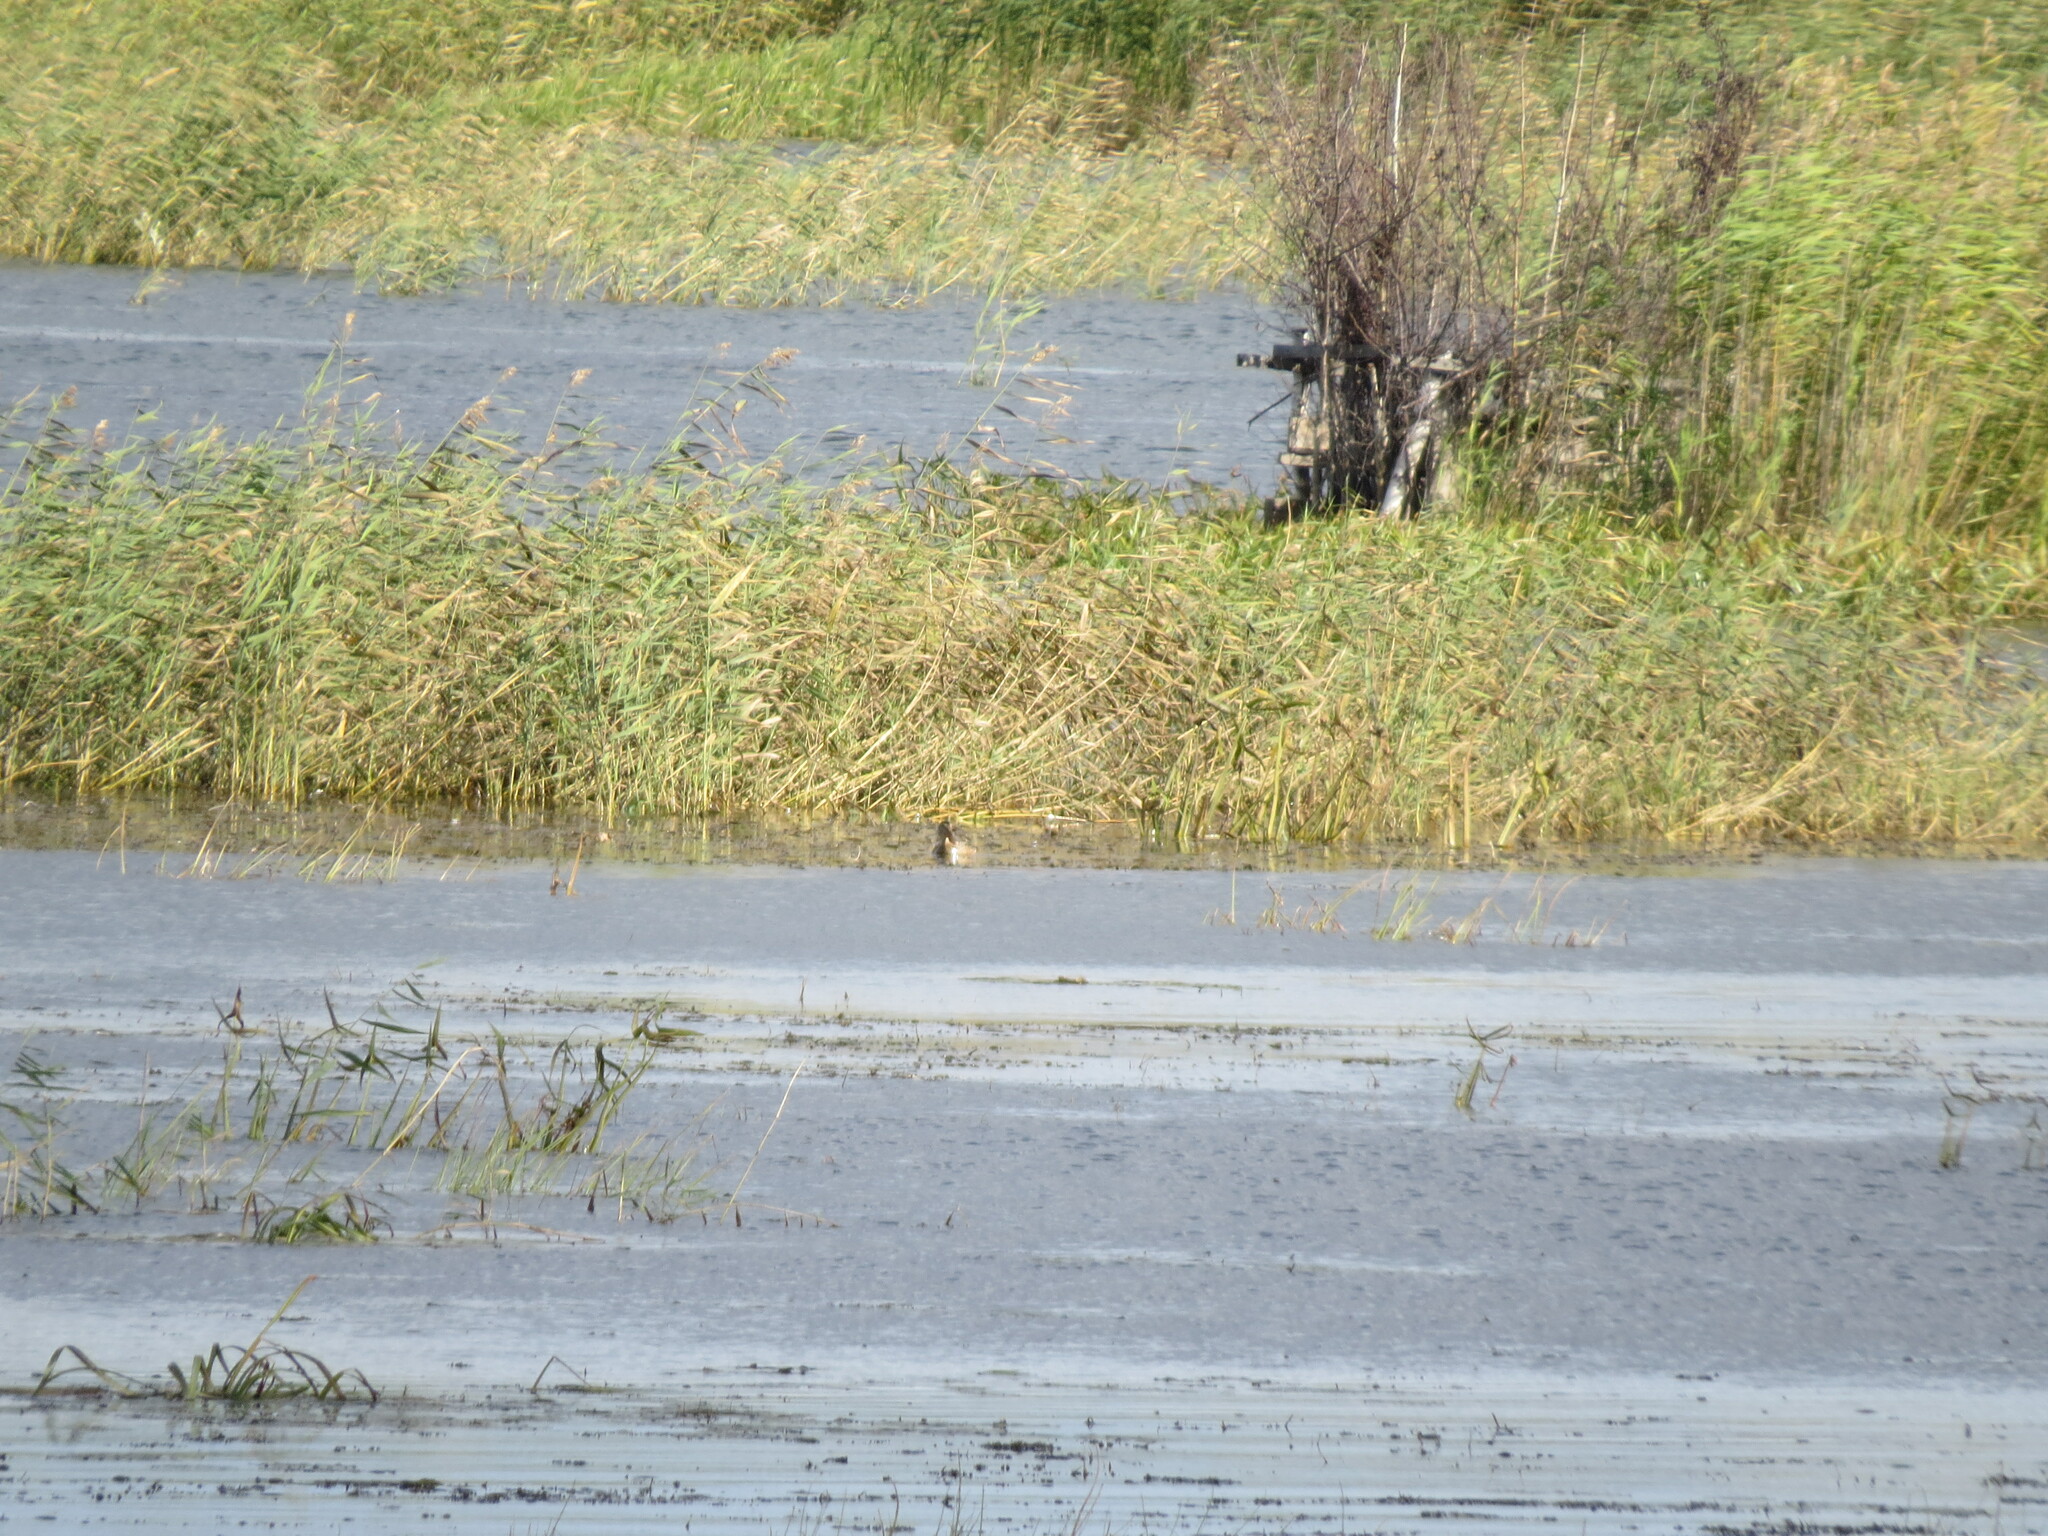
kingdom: Animalia
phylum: Chordata
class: Aves
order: Anseriformes
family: Anatidae
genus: Spatula
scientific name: Spatula clypeata
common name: Northern shoveler
